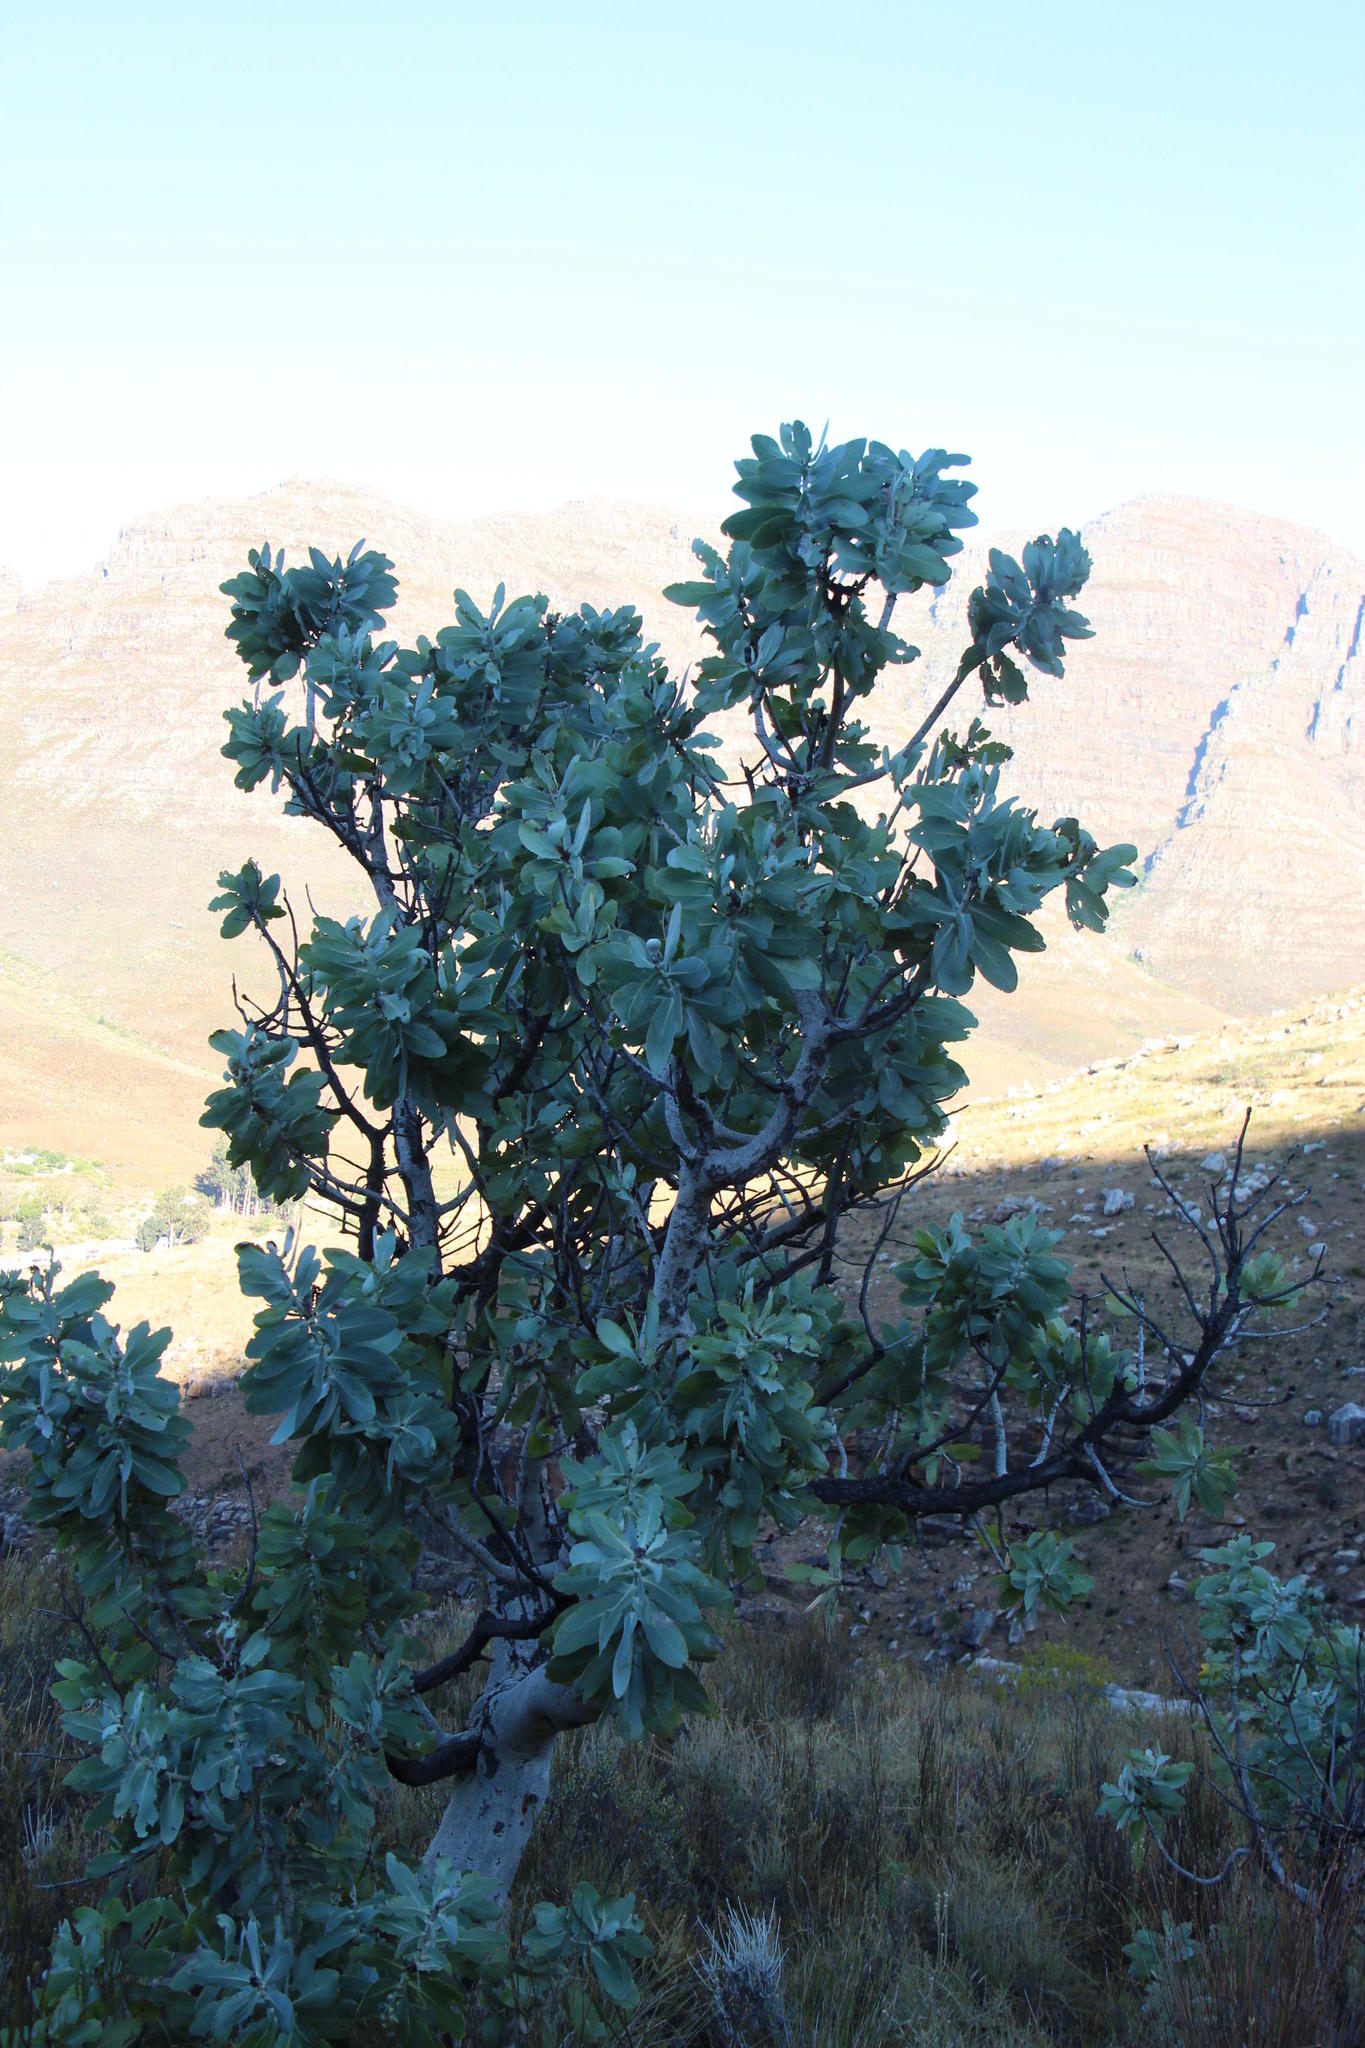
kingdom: Plantae
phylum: Tracheophyta
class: Magnoliopsida
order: Proteales
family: Proteaceae
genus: Protea
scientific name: Protea nitida
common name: Tree protea
